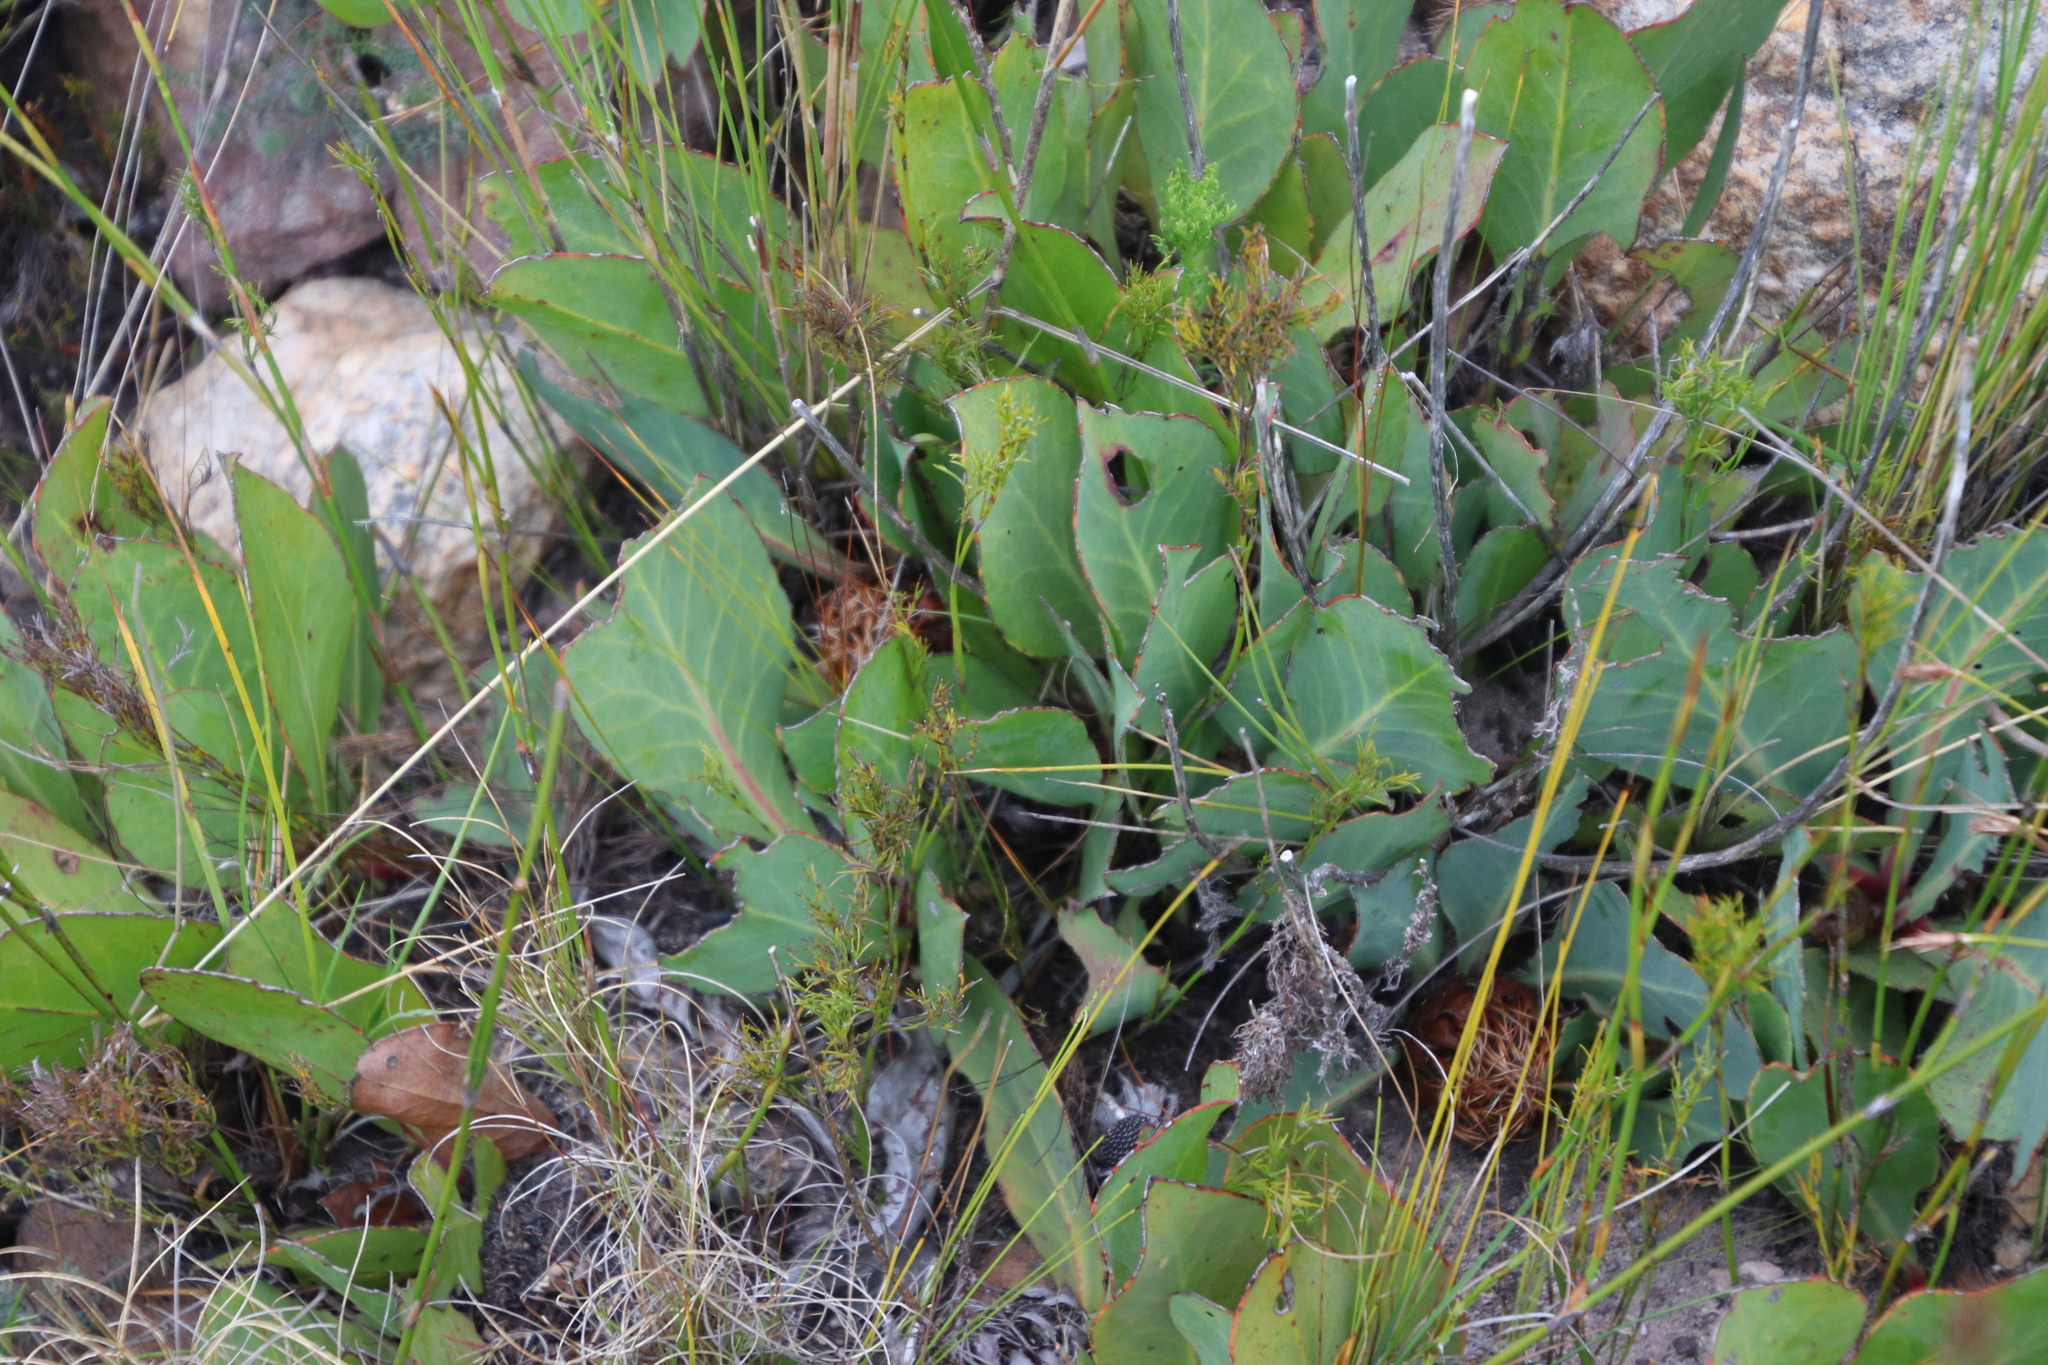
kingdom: Plantae
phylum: Tracheophyta
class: Magnoliopsida
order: Proteales
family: Proteaceae
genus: Protea
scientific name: Protea acaulos
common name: Common ground sugarbush
